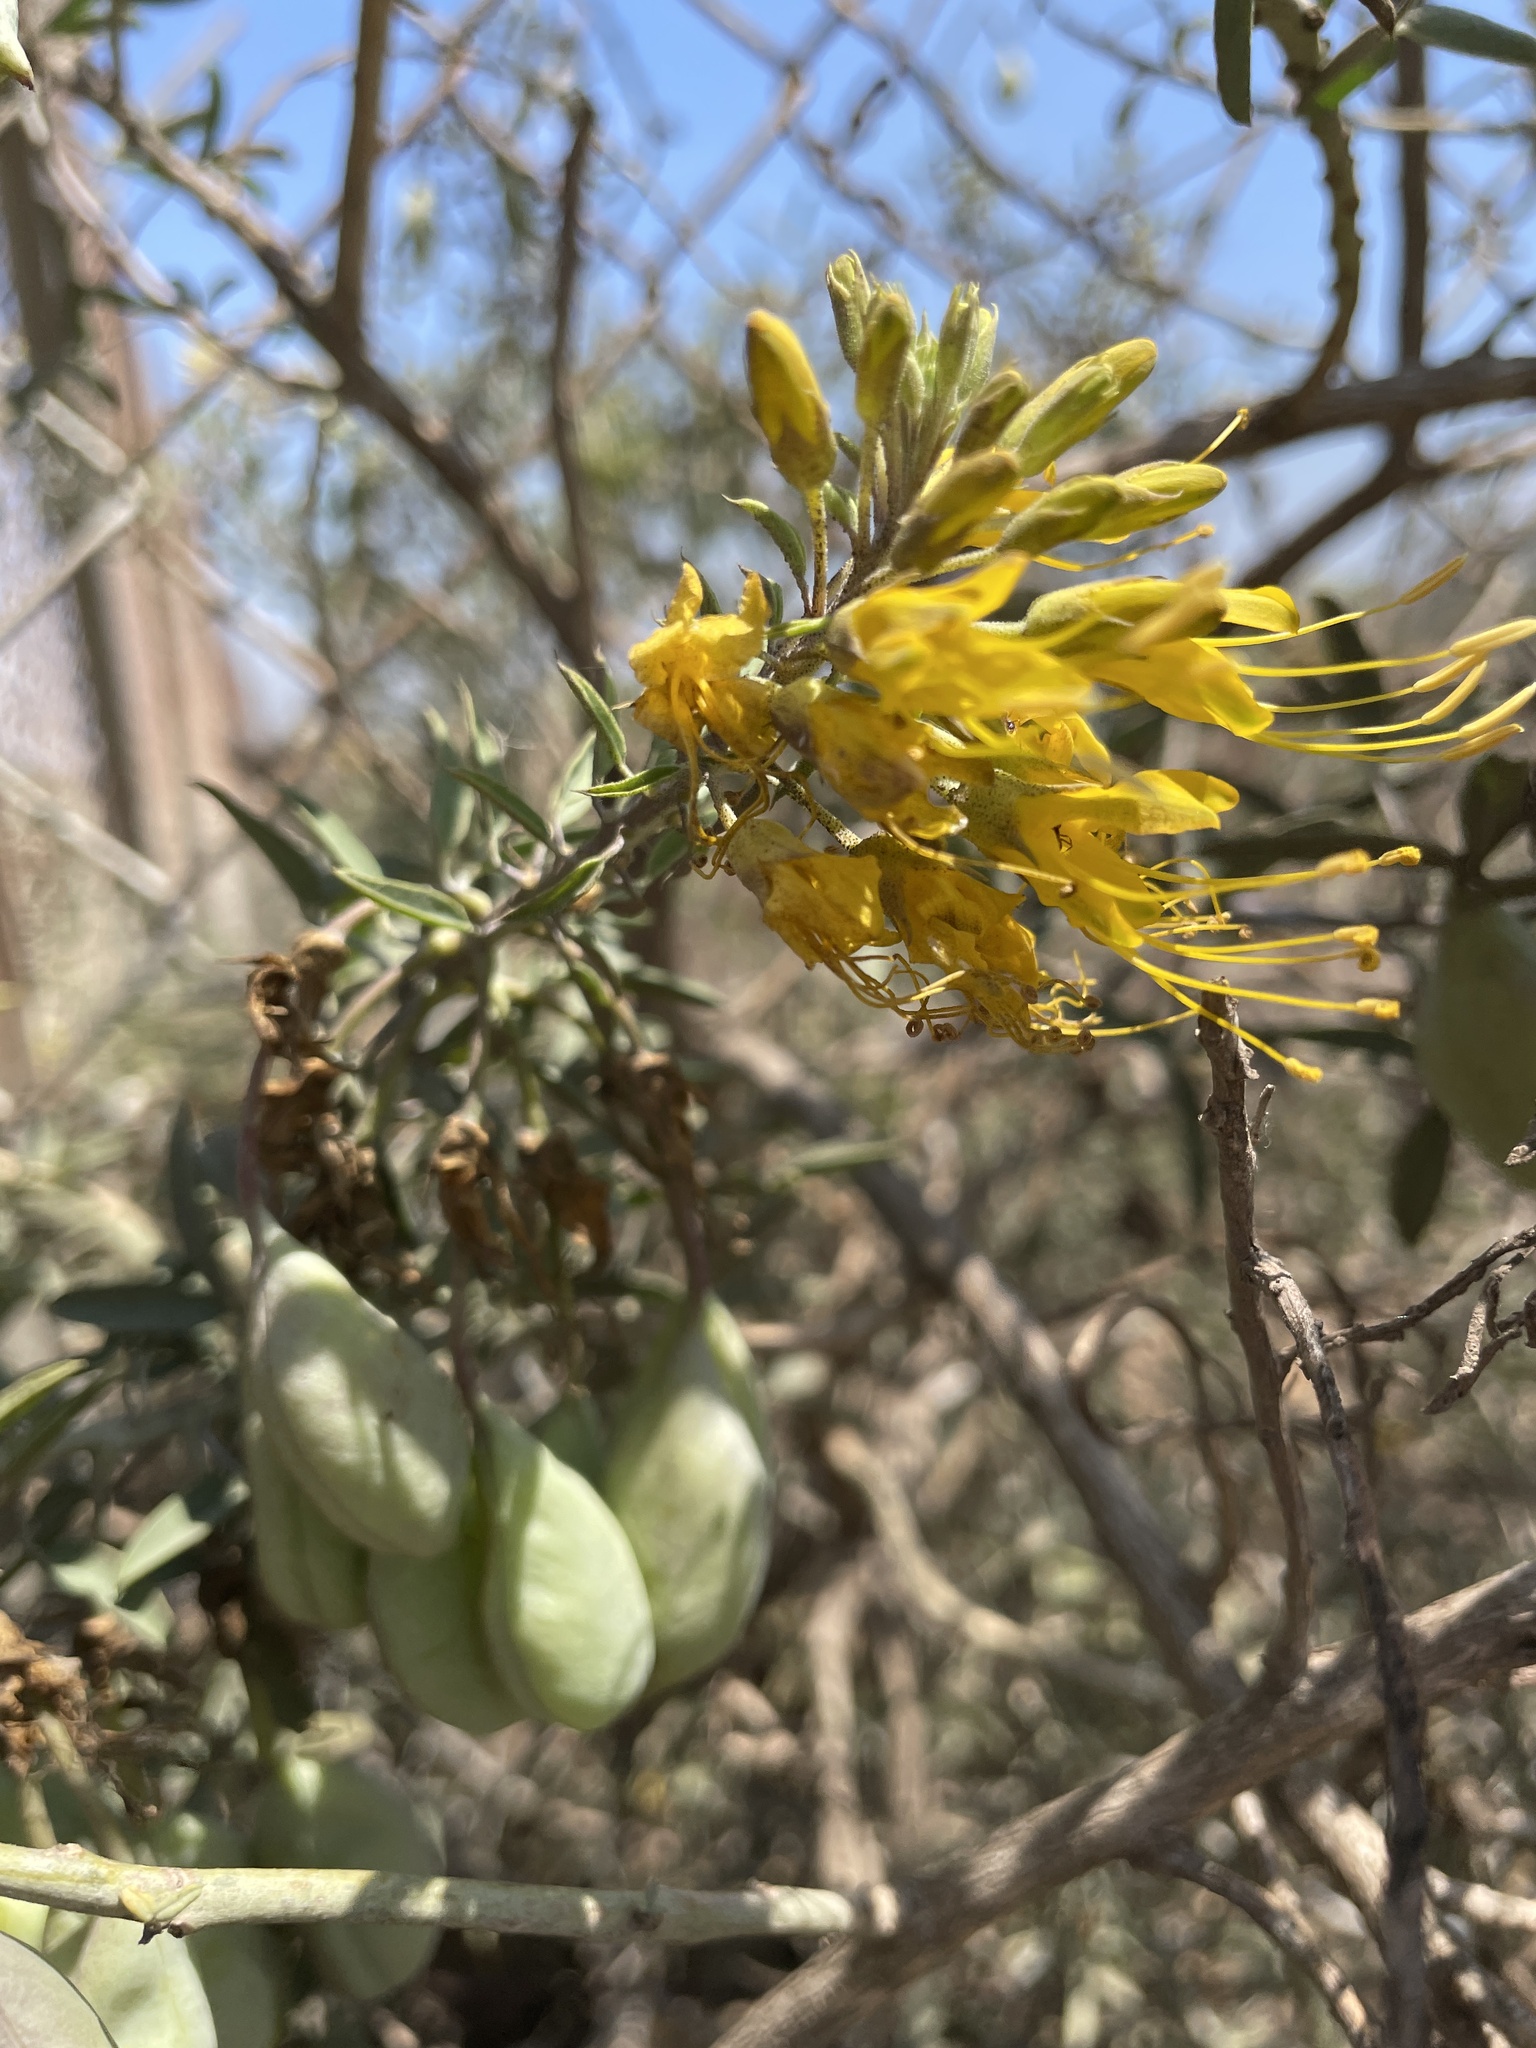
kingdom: Plantae
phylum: Tracheophyta
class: Magnoliopsida
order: Brassicales
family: Cleomaceae
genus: Cleomella
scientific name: Cleomella arborea
